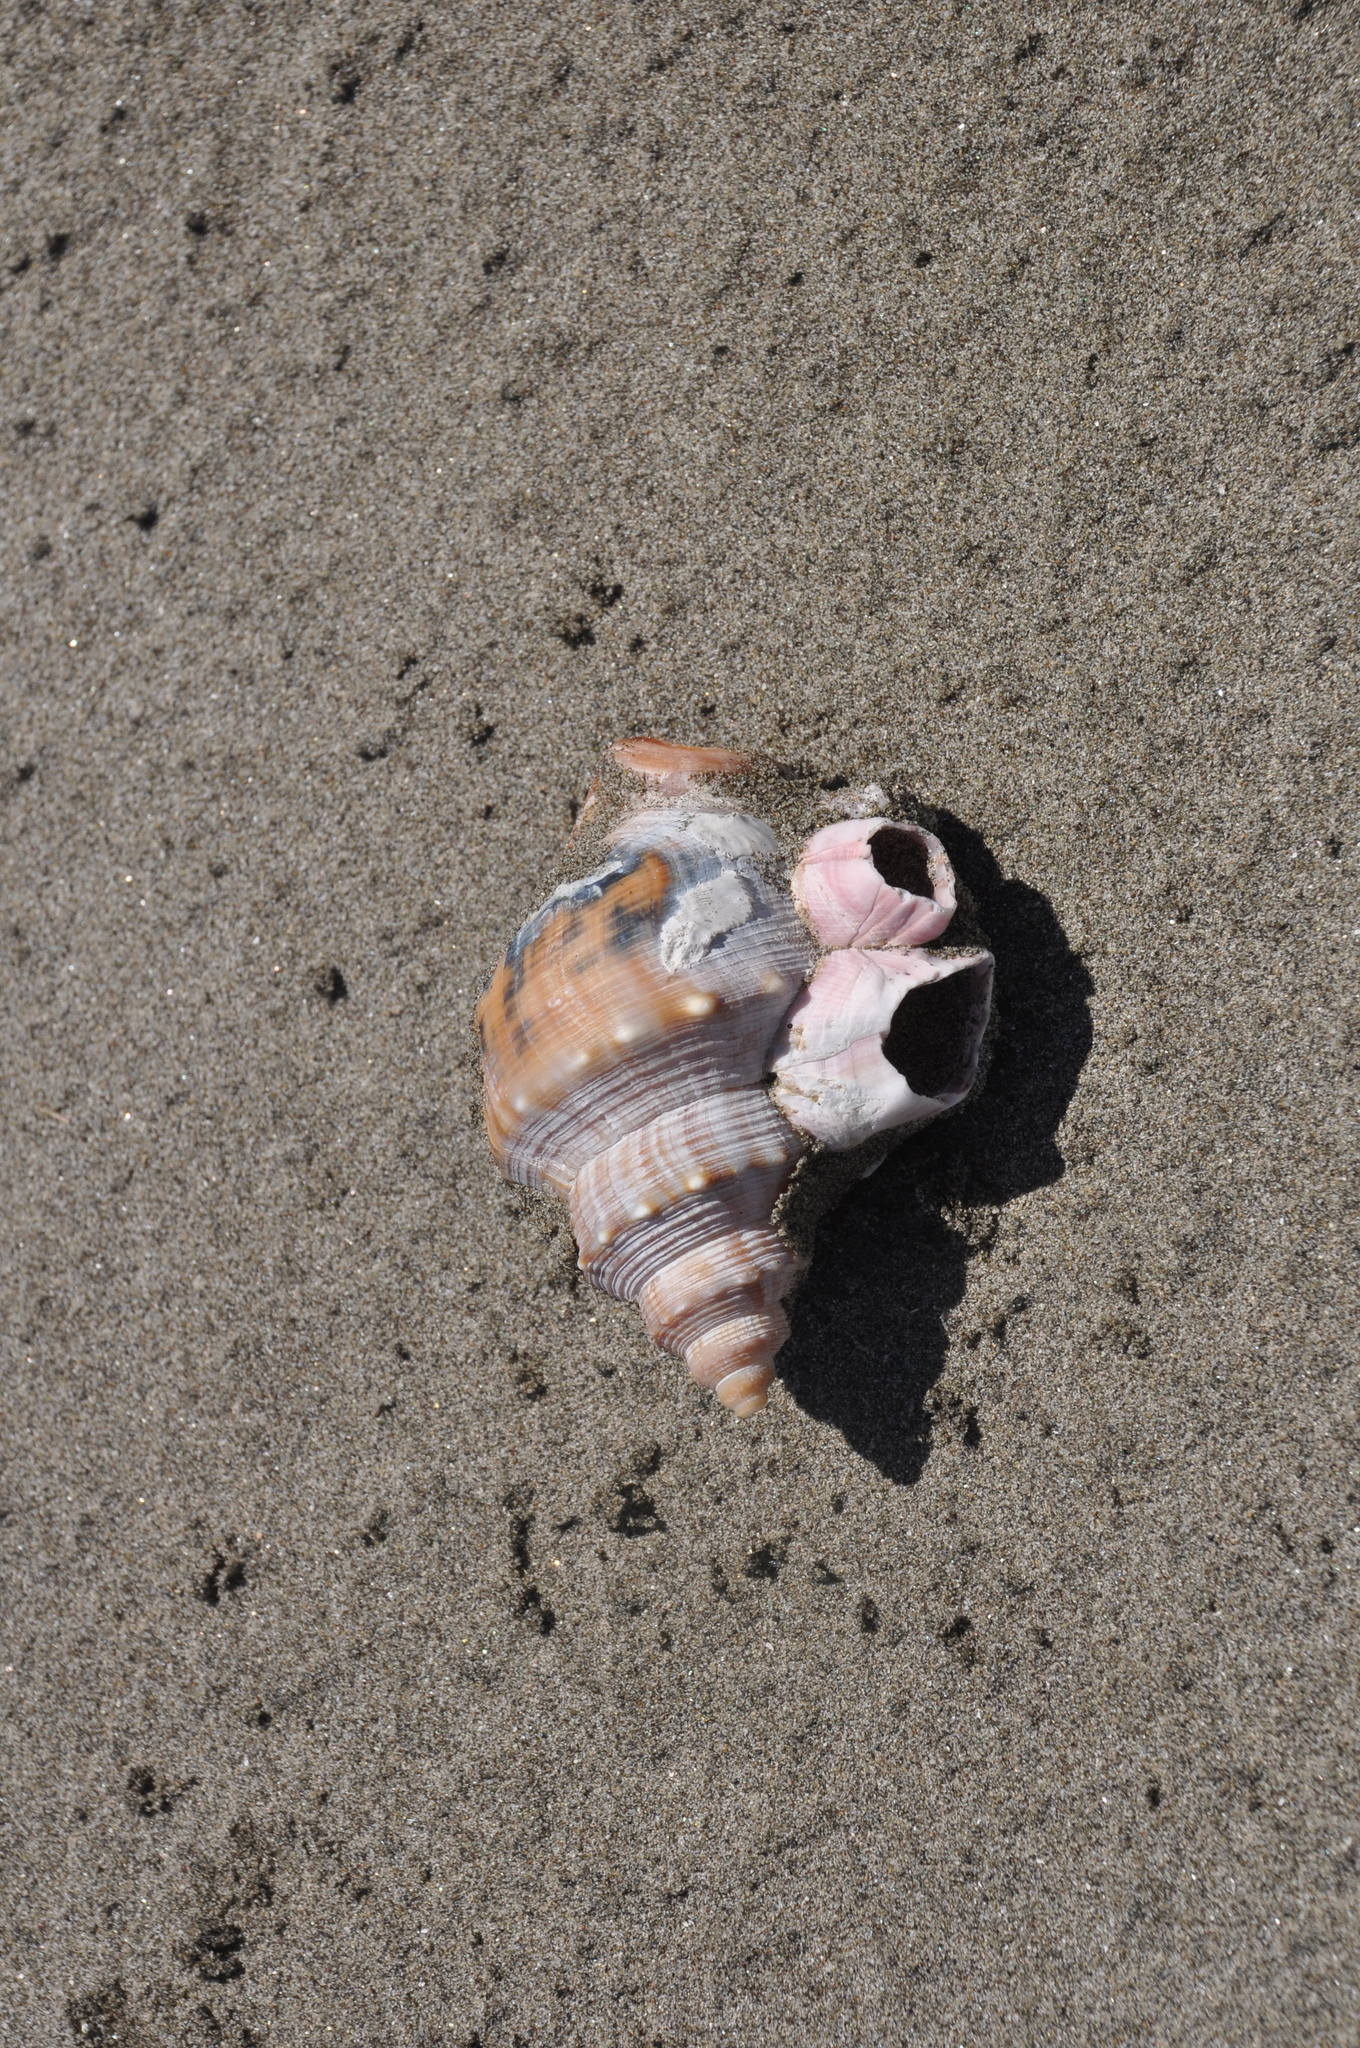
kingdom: Animalia
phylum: Mollusca
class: Gastropoda
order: Littorinimorpha
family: Struthiolariidae
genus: Struthiolaria
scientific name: Struthiolaria papulosa
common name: Large ostrich foot
